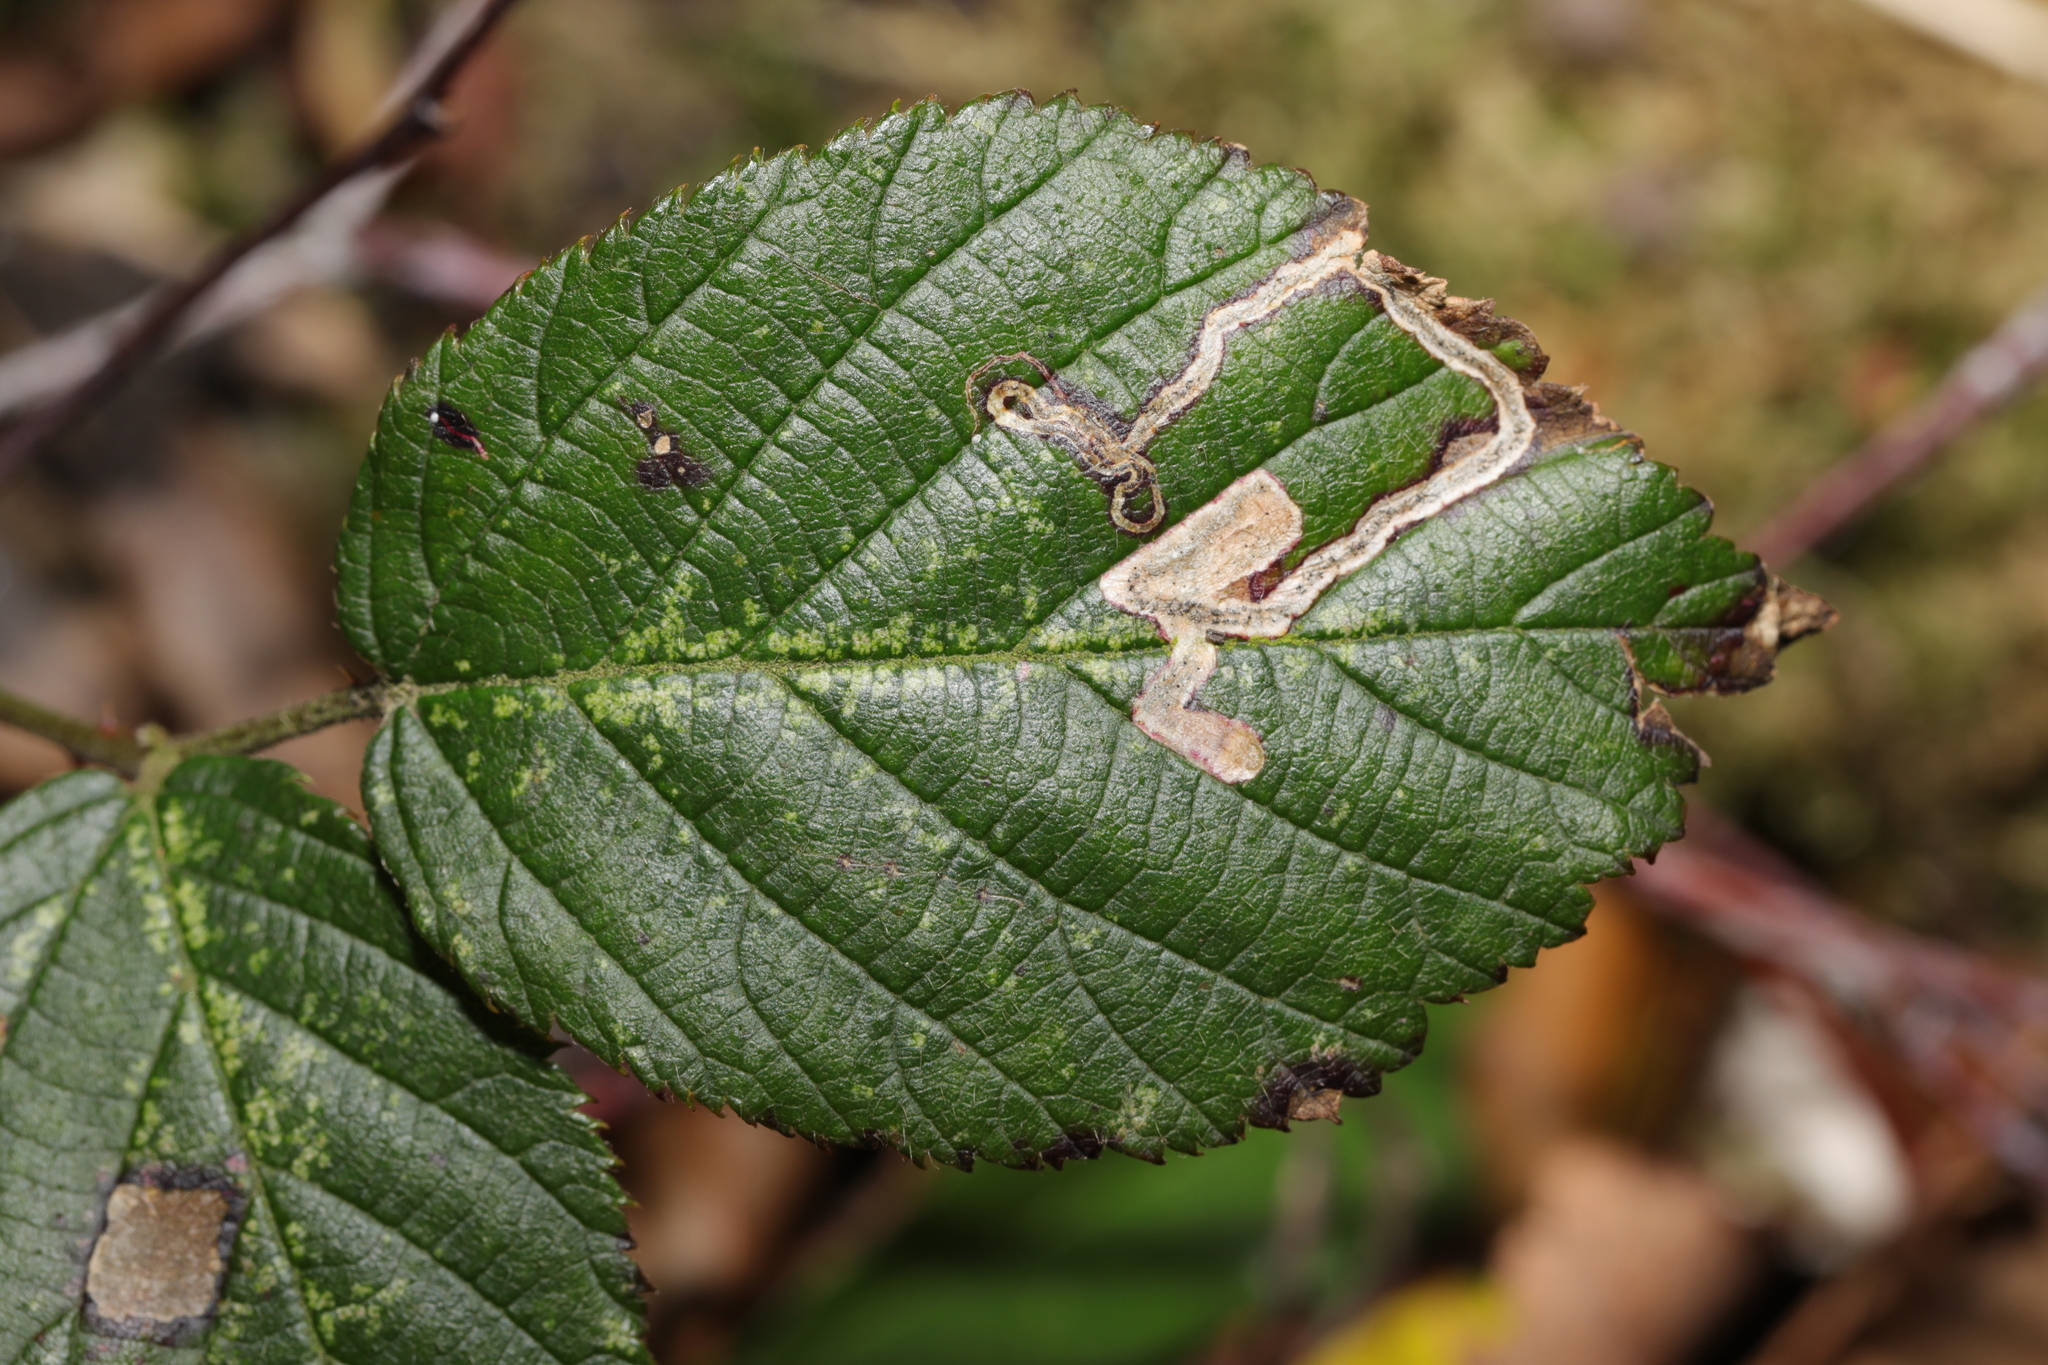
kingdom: Animalia
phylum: Arthropoda
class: Insecta
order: Lepidoptera
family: Nepticulidae
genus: Stigmella
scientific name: Stigmella aurella
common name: Golden pigmy
